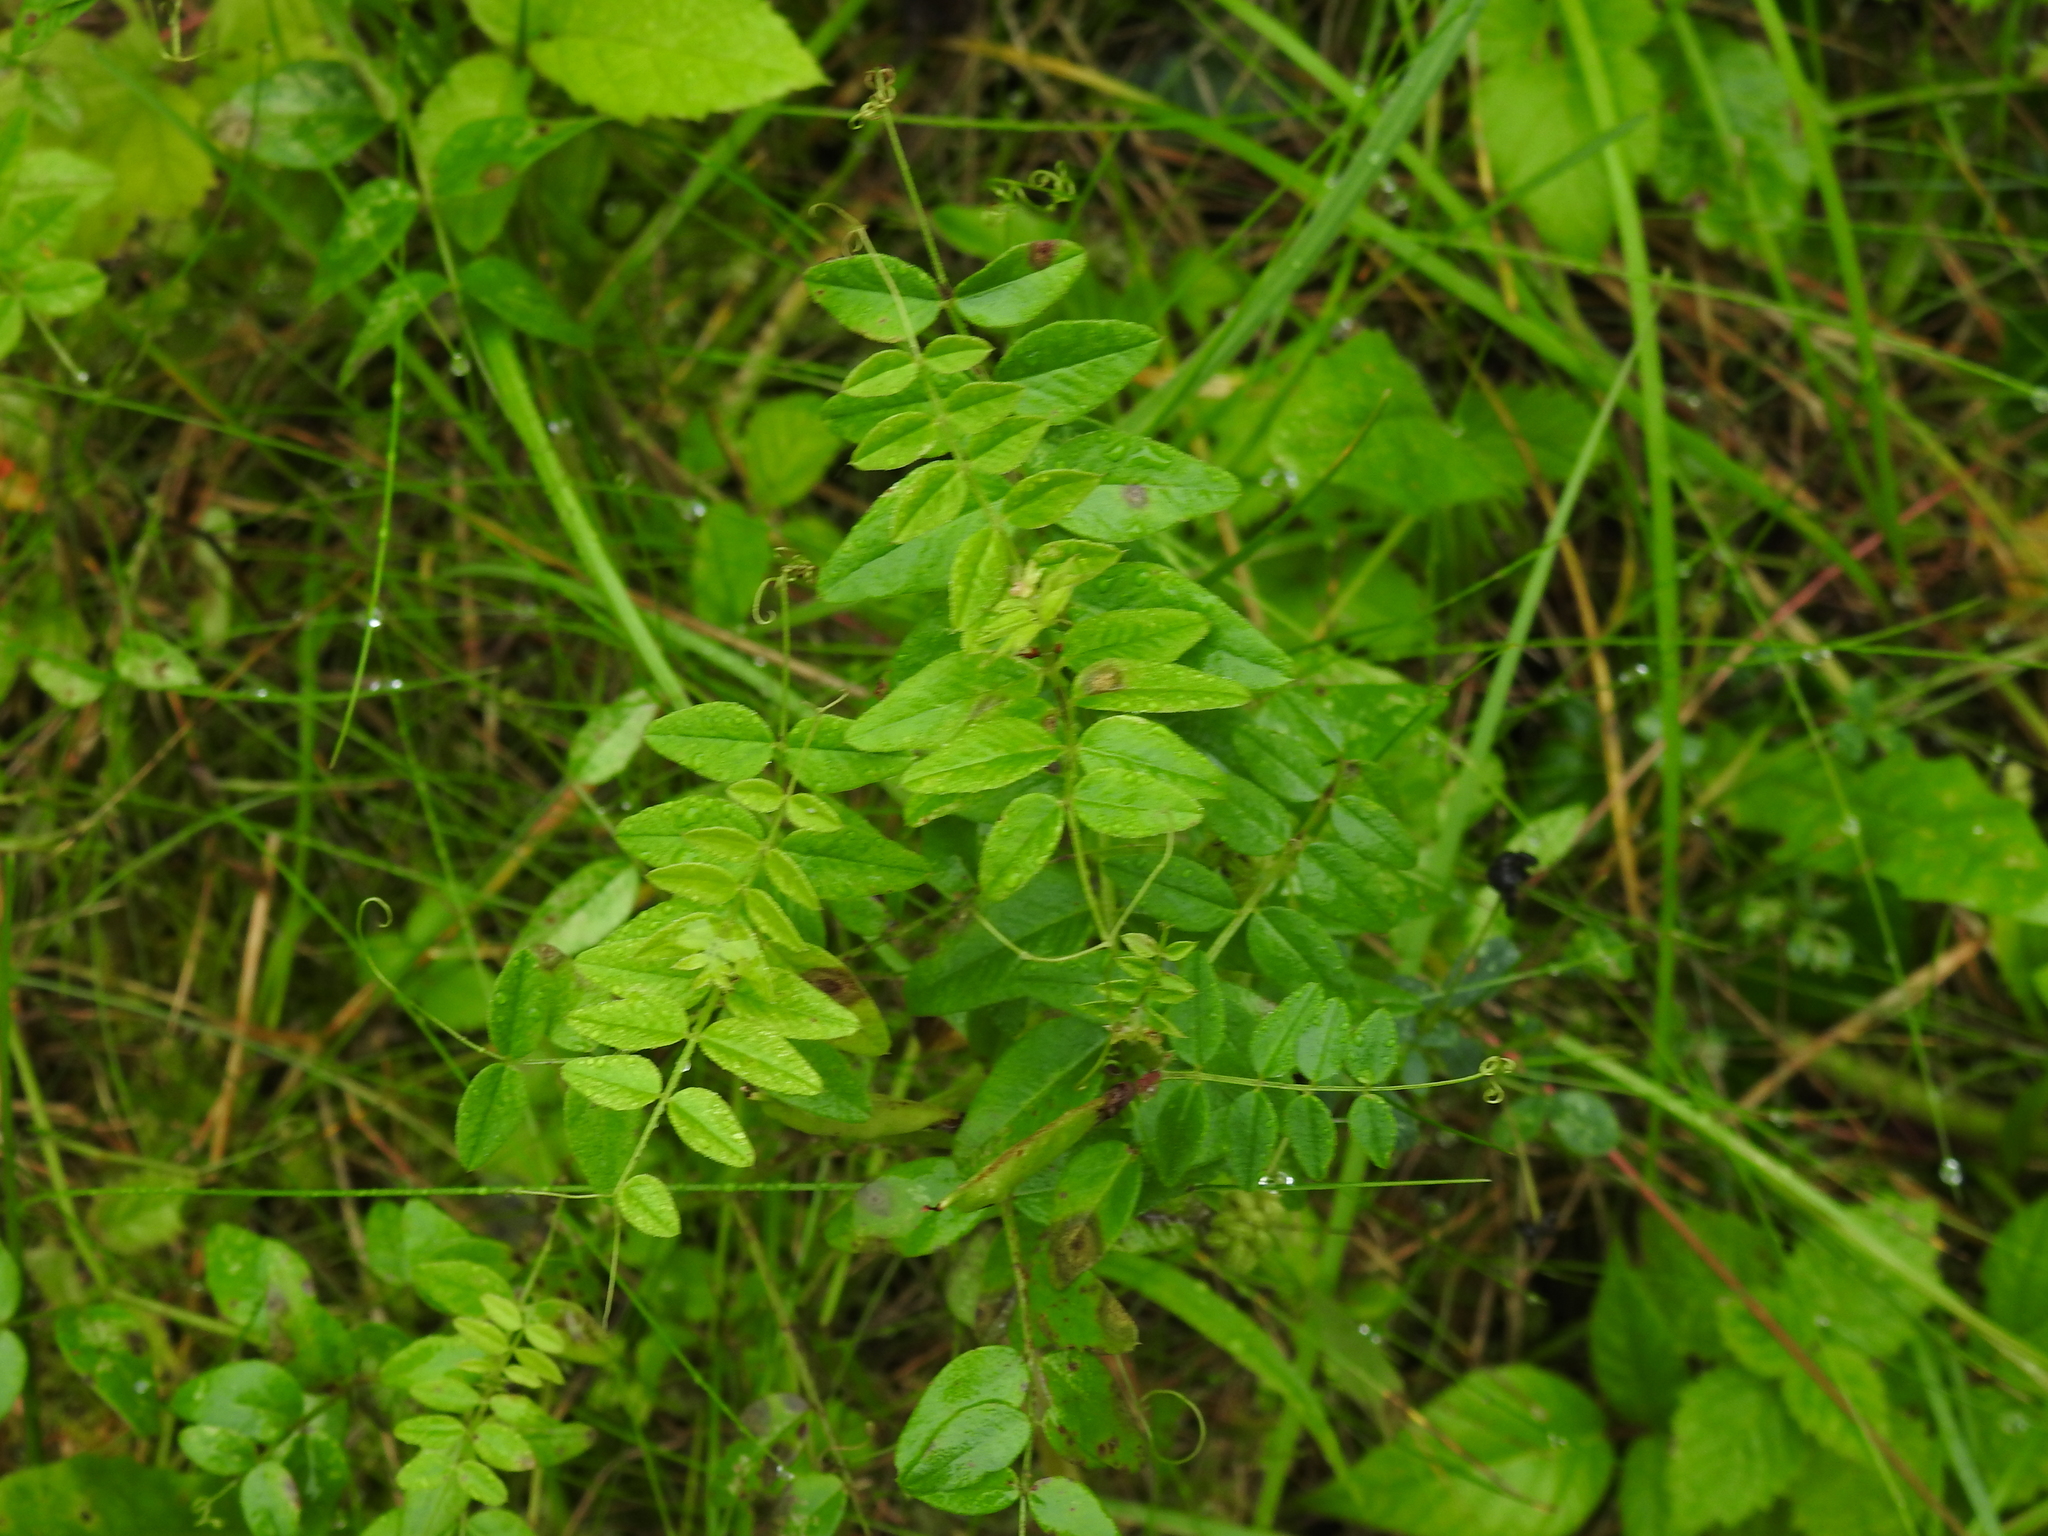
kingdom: Plantae
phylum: Tracheophyta
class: Magnoliopsida
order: Fabales
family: Fabaceae
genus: Vicia
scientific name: Vicia sepium
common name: Bush vetch
